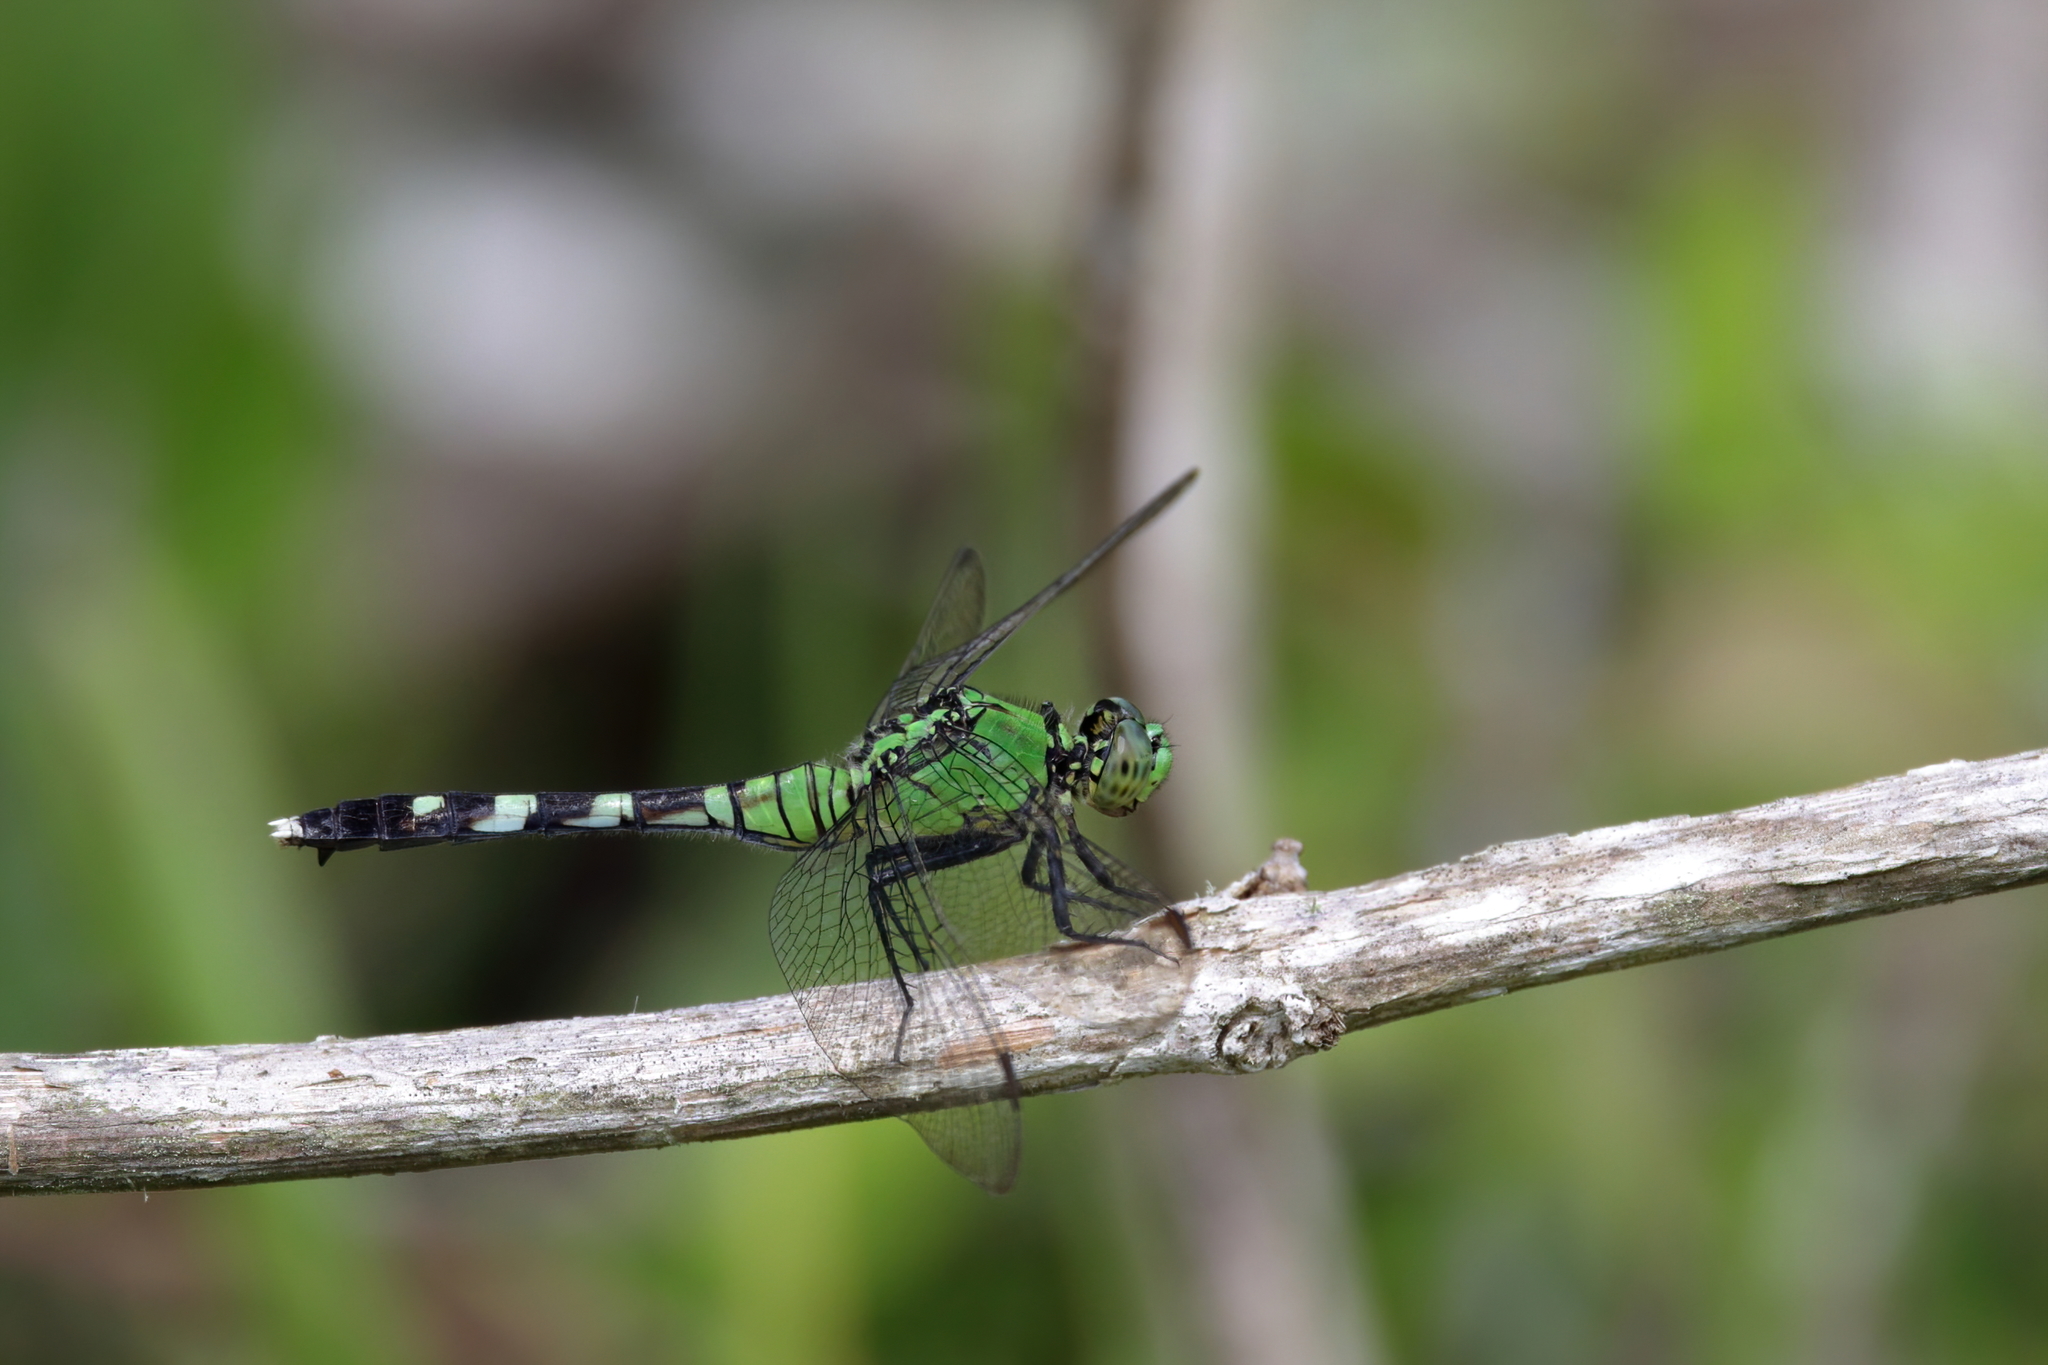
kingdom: Animalia
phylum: Arthropoda
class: Insecta
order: Odonata
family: Libellulidae
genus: Erythemis
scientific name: Erythemis simplicicollis
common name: Eastern pondhawk
